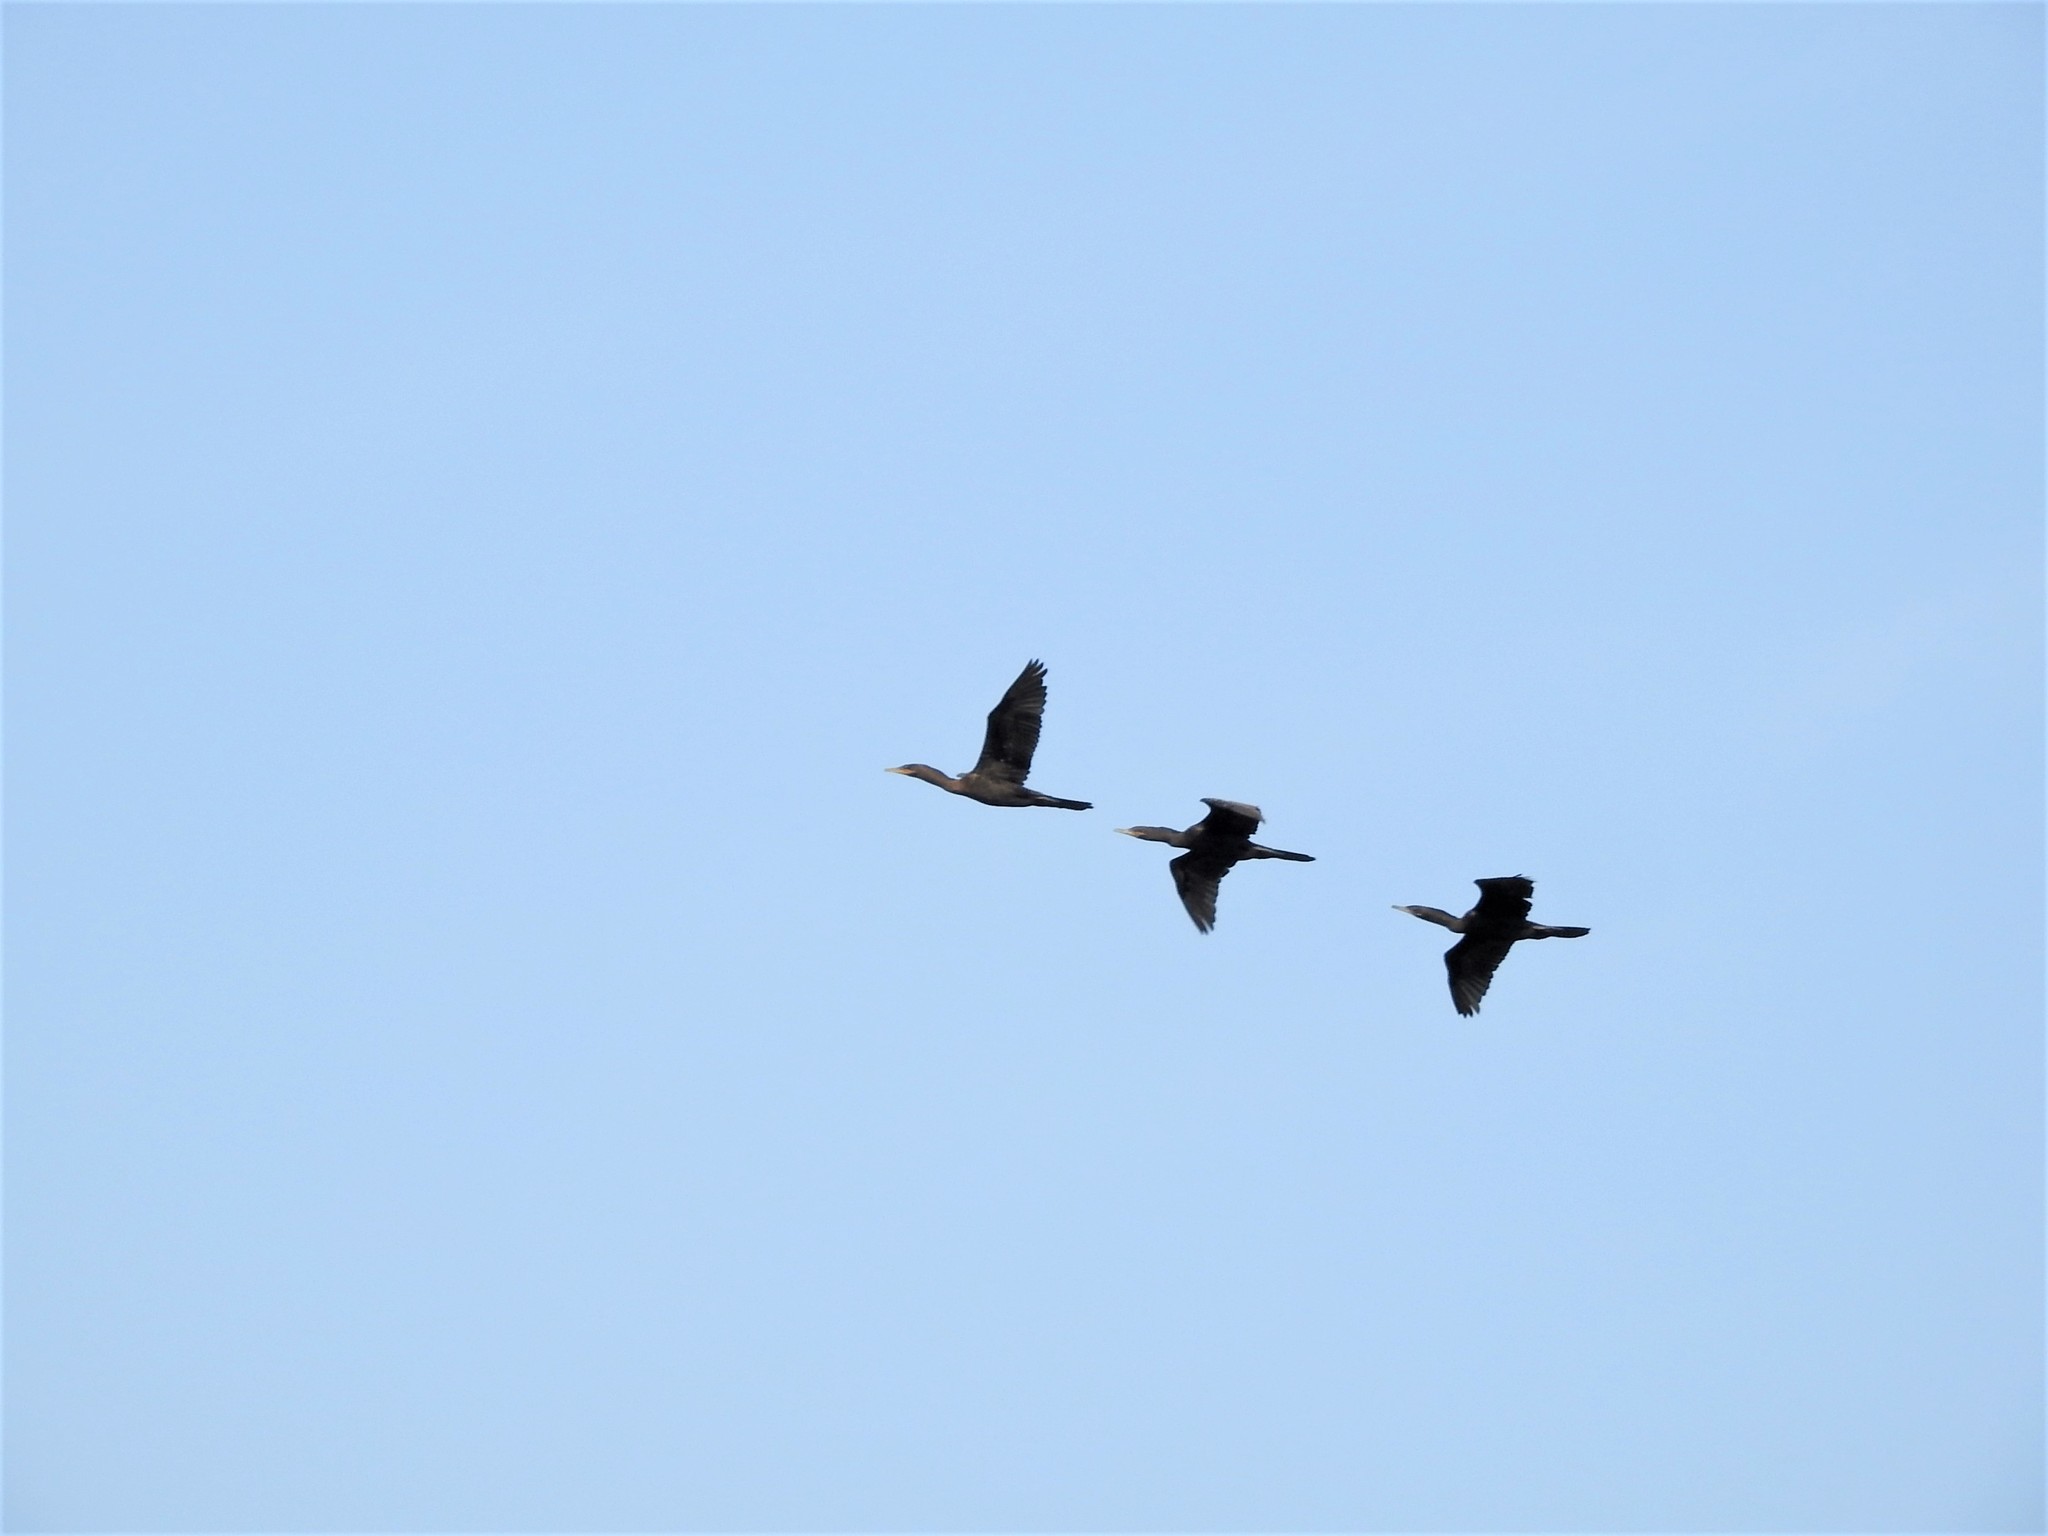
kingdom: Animalia
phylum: Chordata
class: Aves
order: Suliformes
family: Phalacrocoracidae
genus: Phalacrocorax
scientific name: Phalacrocorax brasilianus
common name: Neotropic cormorant
